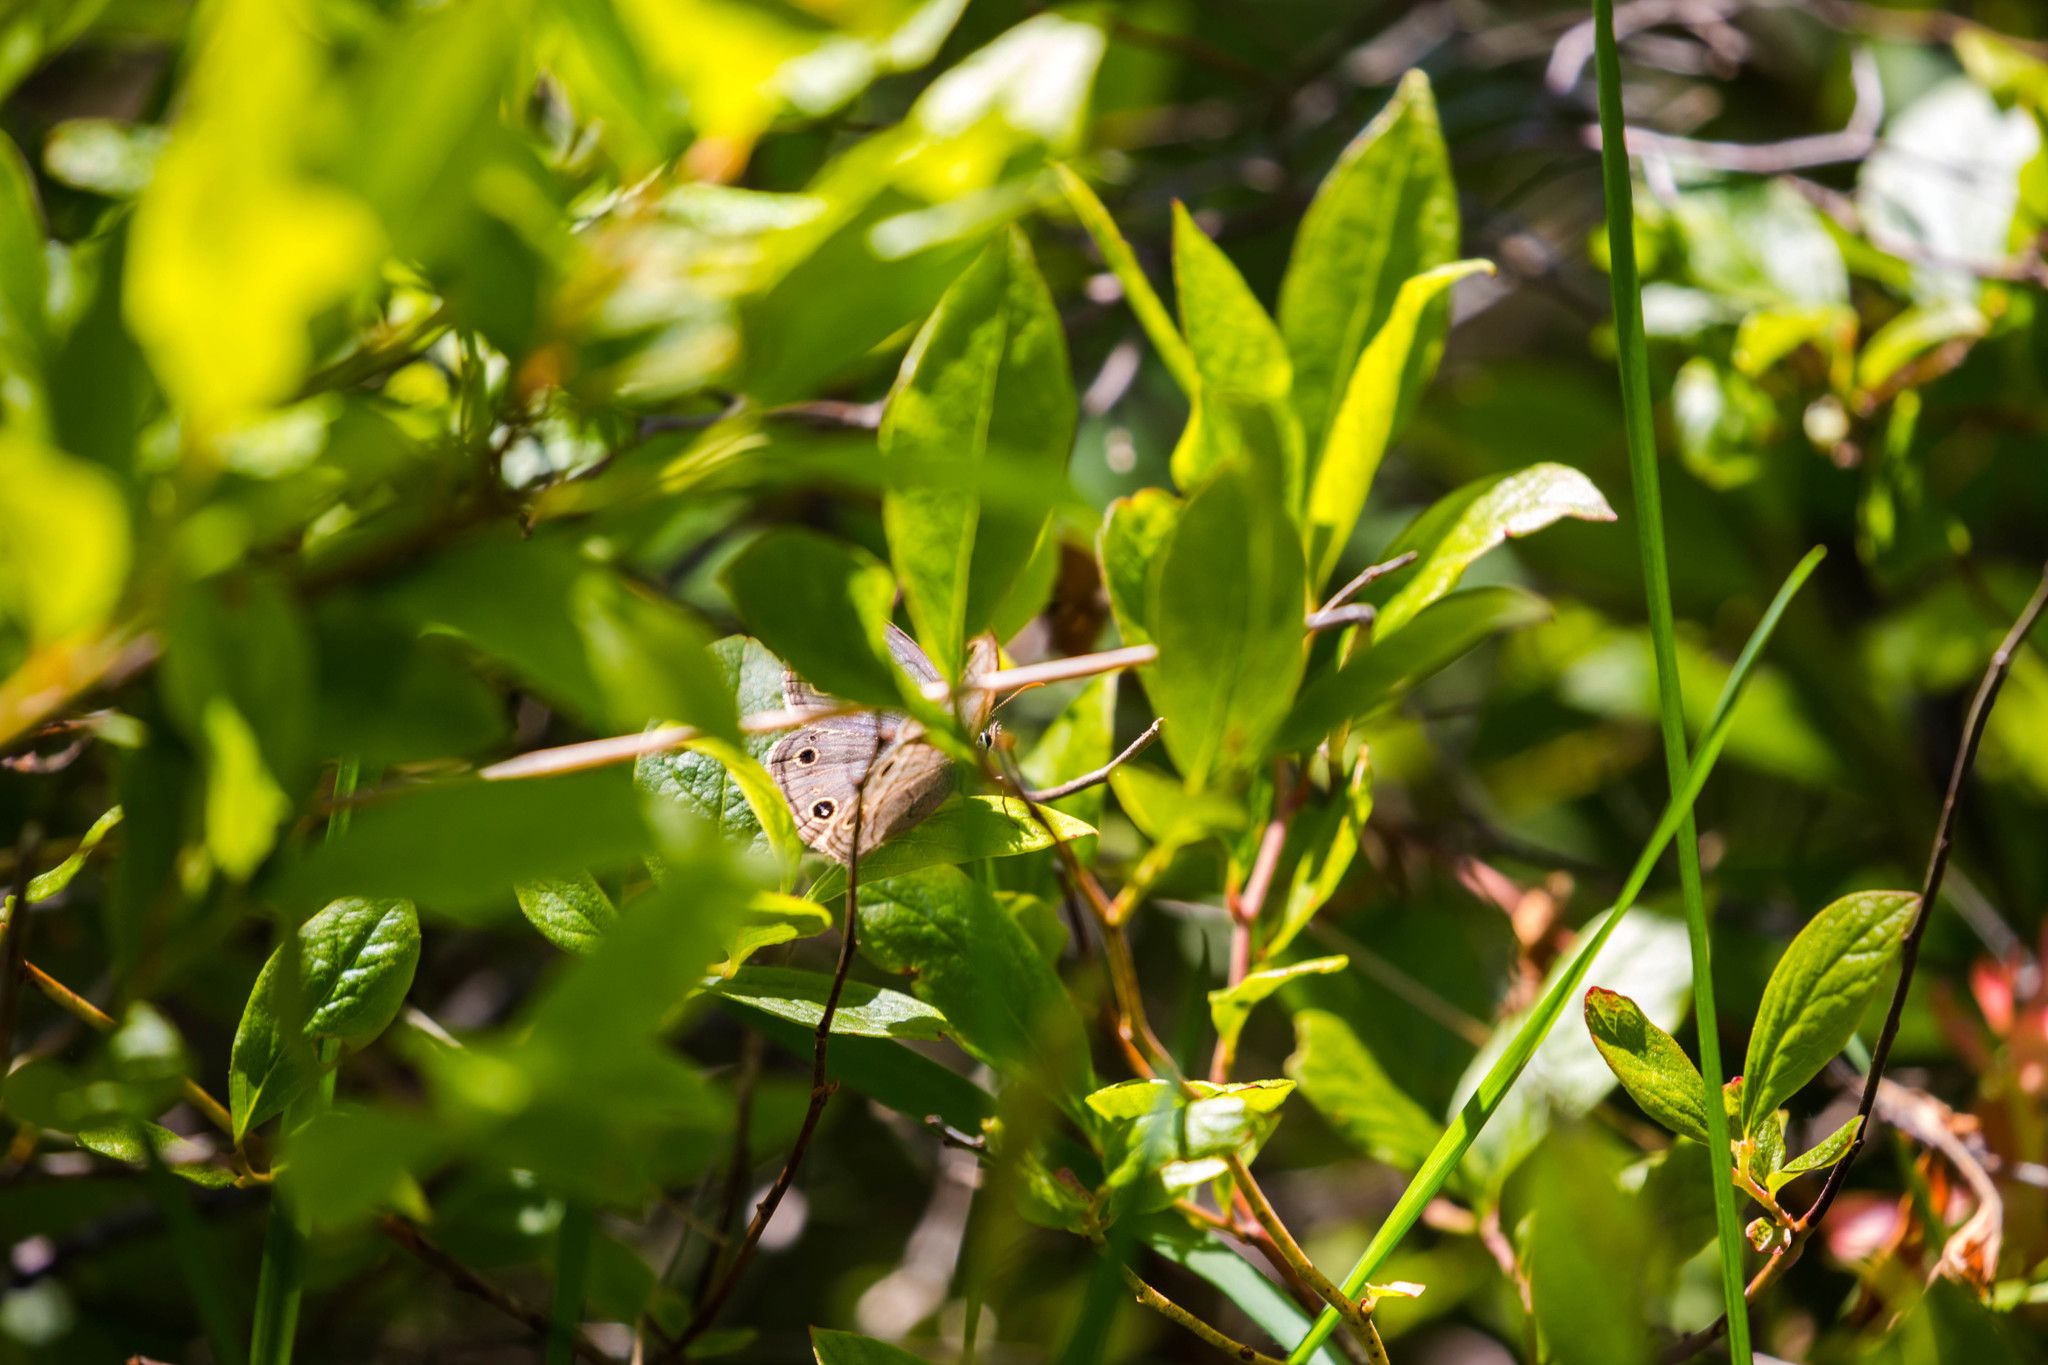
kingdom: Animalia
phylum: Arthropoda
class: Insecta
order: Lepidoptera
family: Nymphalidae
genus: Euptychia
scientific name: Euptychia cymela
